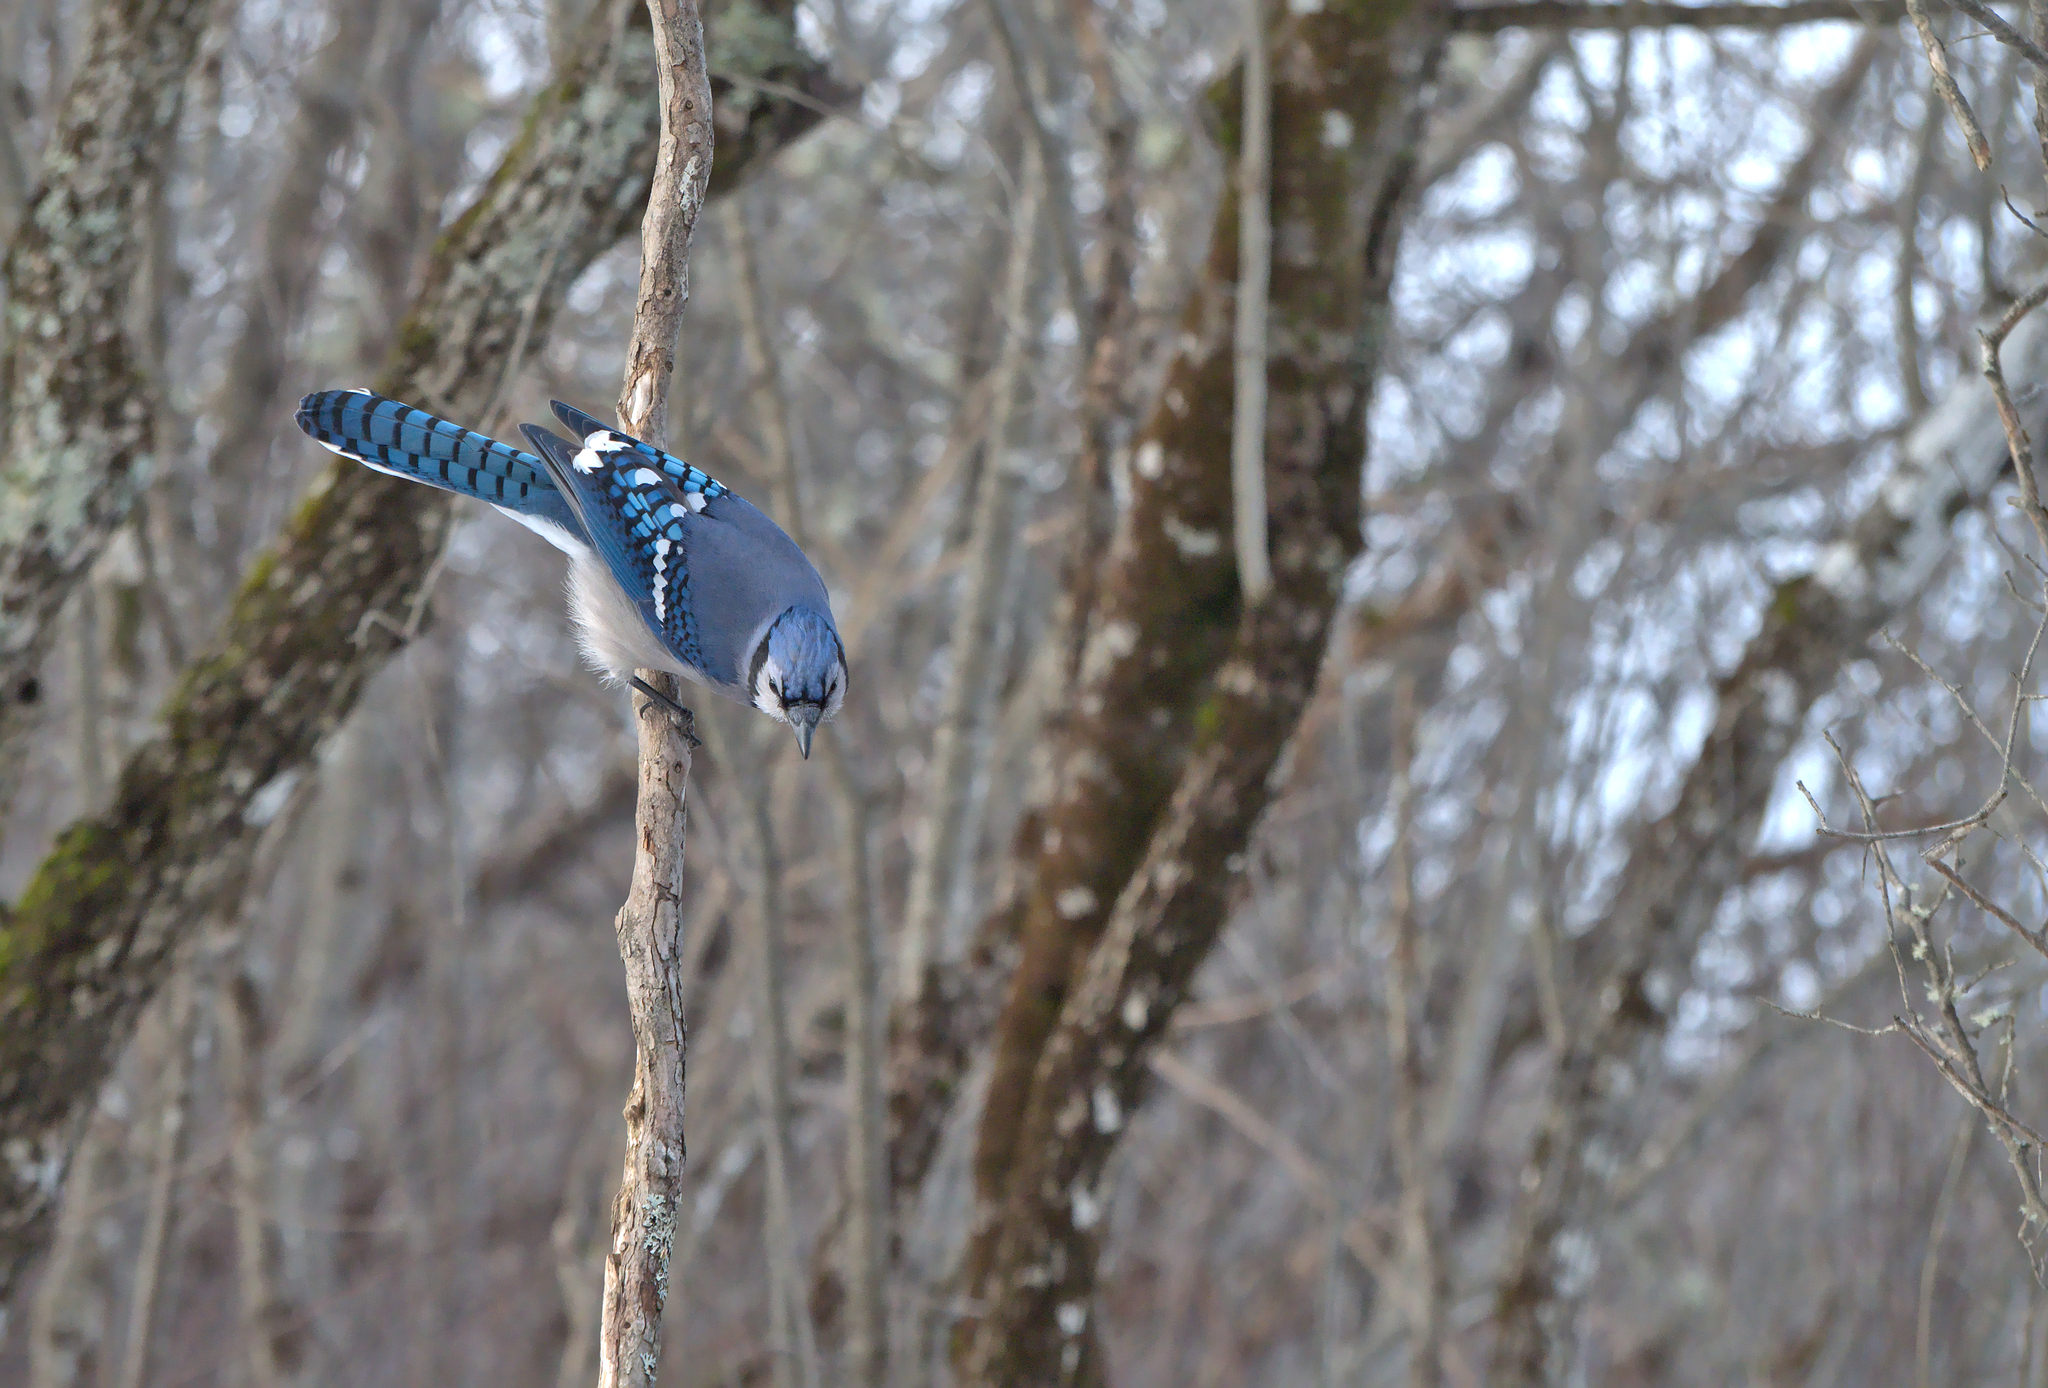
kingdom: Animalia
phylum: Chordata
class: Aves
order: Passeriformes
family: Corvidae
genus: Cyanocitta
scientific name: Cyanocitta cristata
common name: Blue jay
